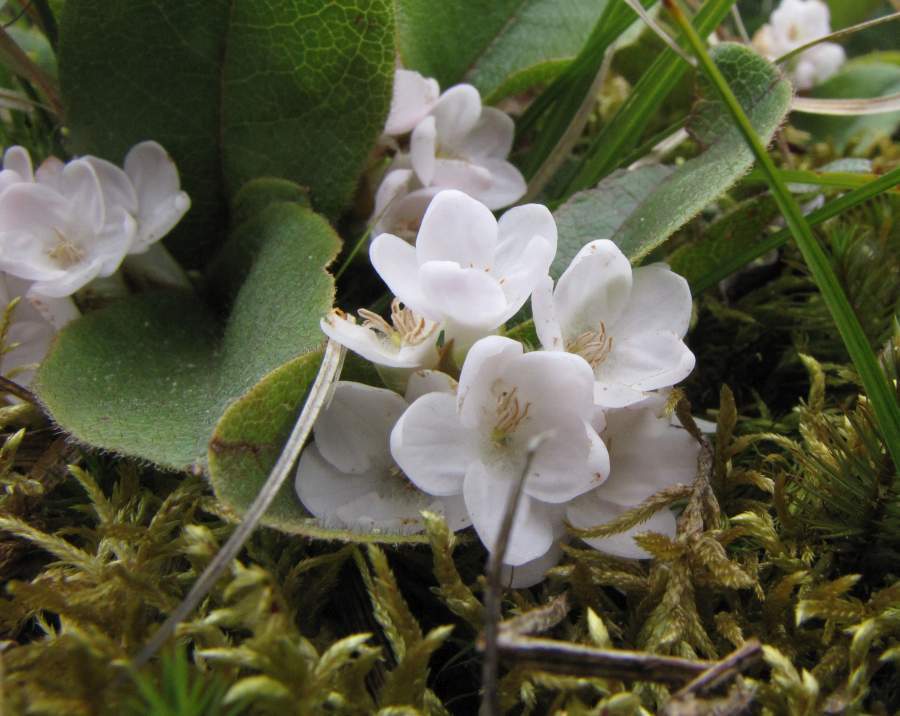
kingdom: Plantae
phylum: Tracheophyta
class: Magnoliopsida
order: Ericales
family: Ericaceae
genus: Epigaea
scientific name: Epigaea repens
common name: Gravelroot
